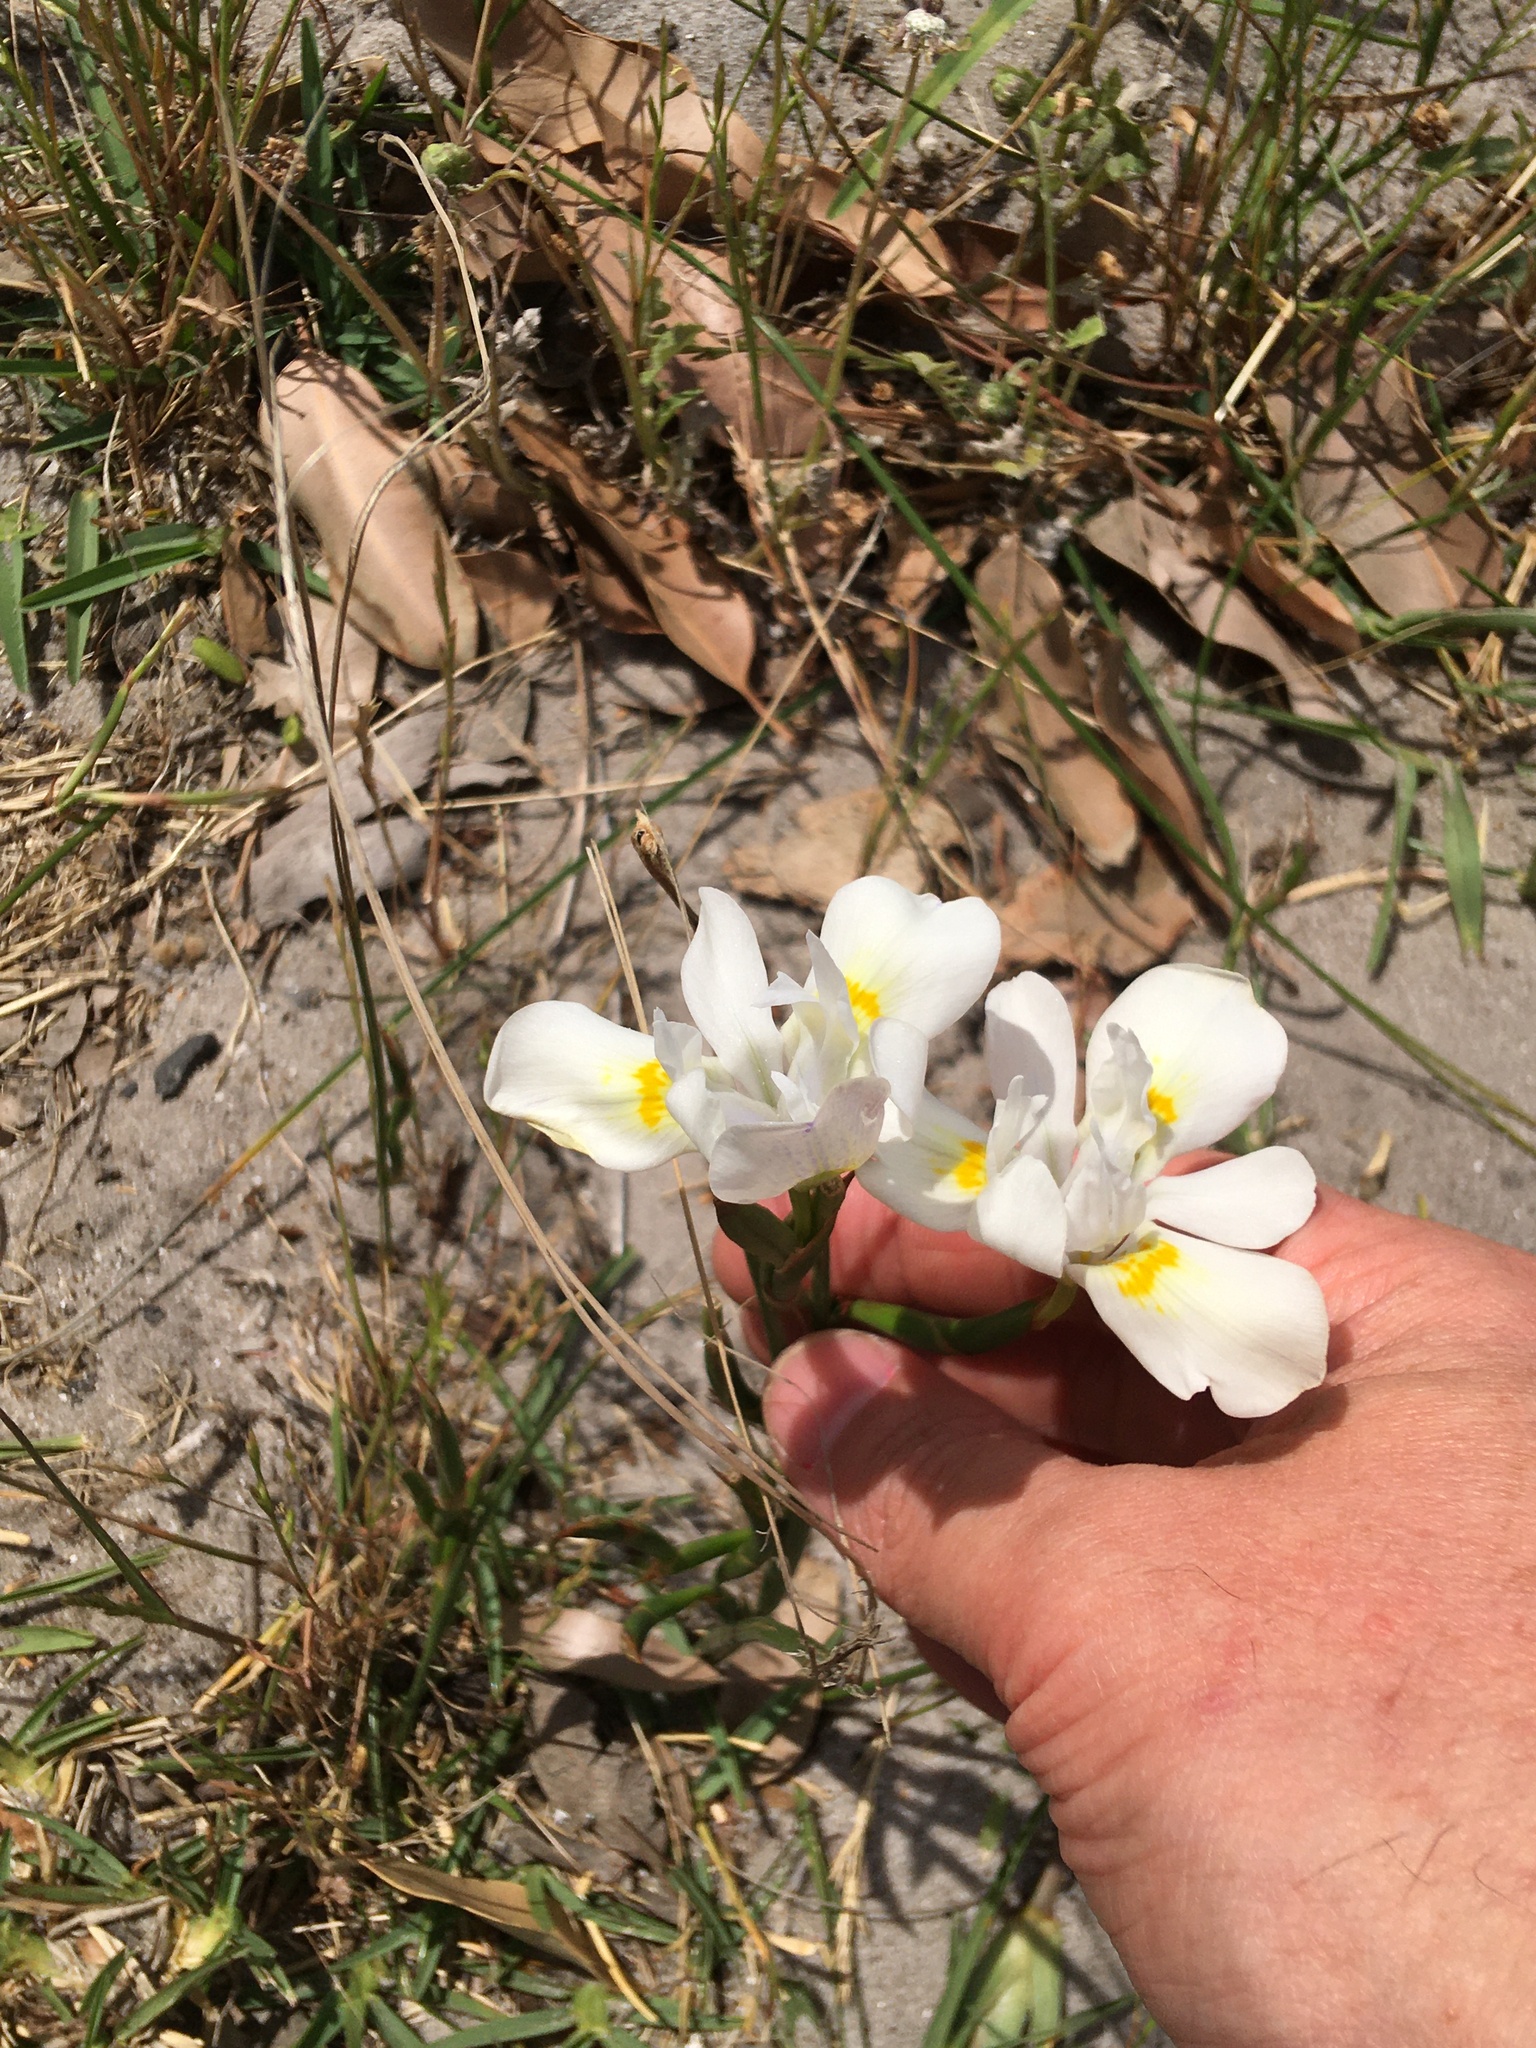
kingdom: Plantae
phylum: Tracheophyta
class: Liliopsida
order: Asparagales
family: Iridaceae
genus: Moraea
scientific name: Moraea fugax
